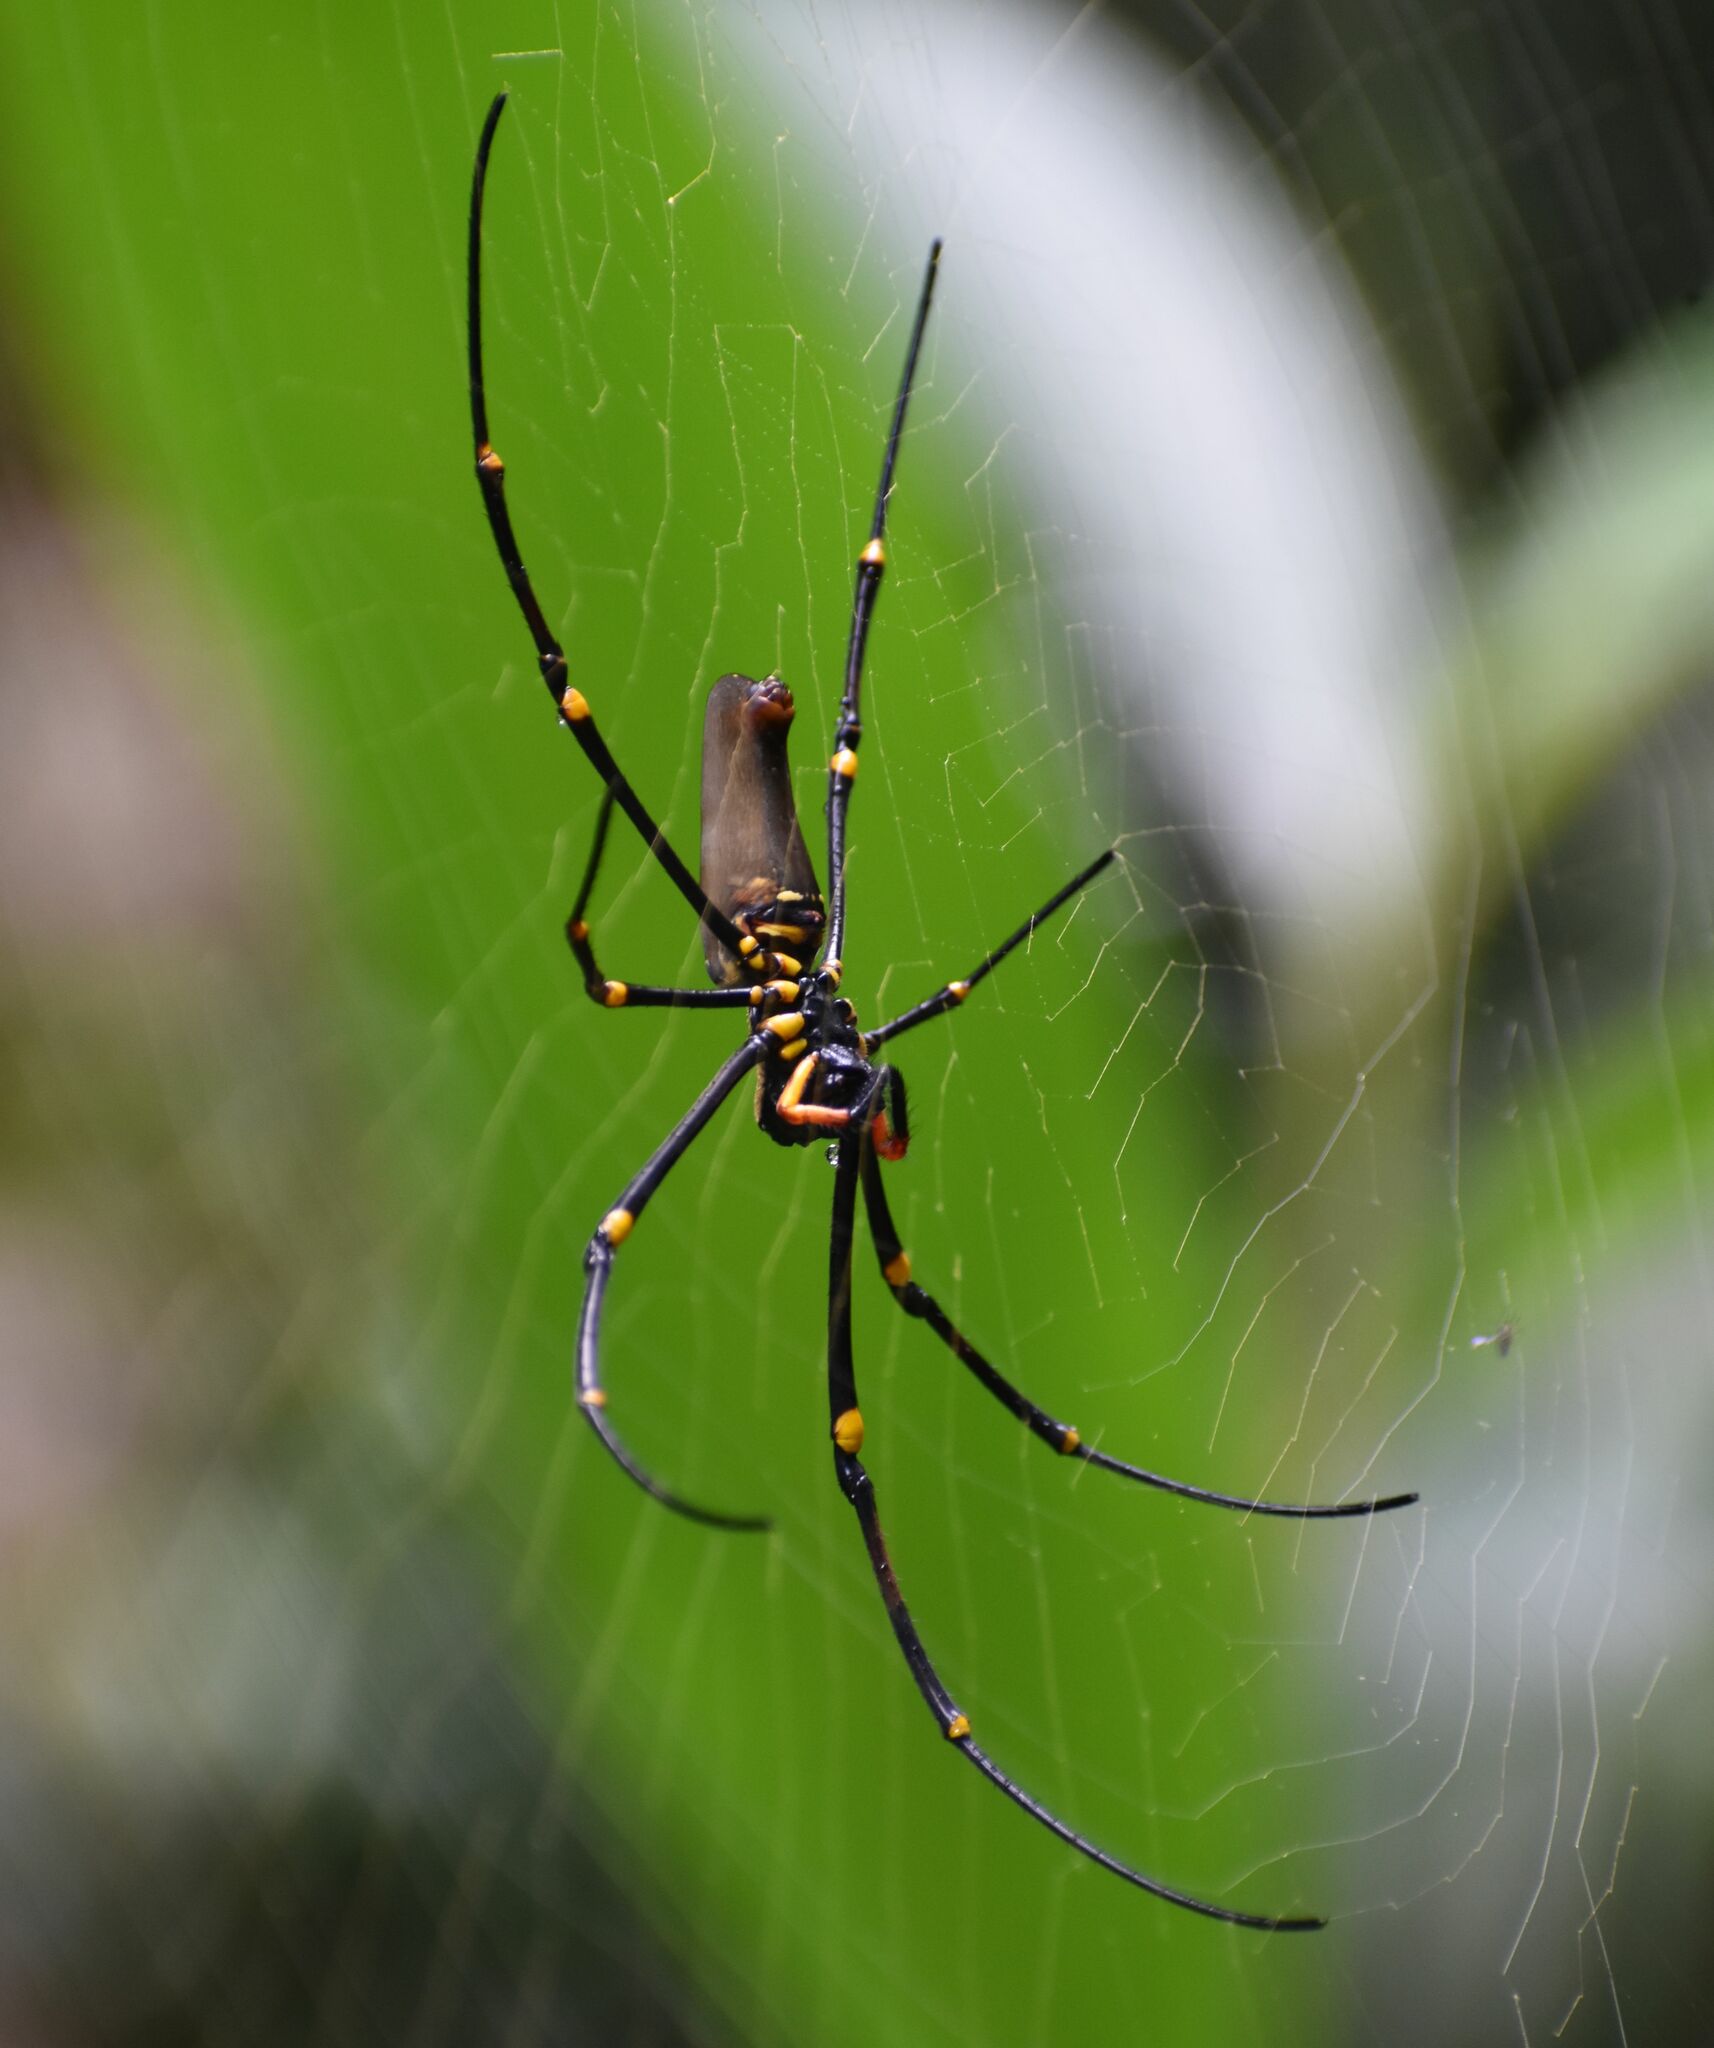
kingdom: Animalia
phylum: Arthropoda
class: Arachnida
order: Araneae
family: Araneidae
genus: Nephila
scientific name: Nephila pilipes
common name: Giant golden orb weaver
